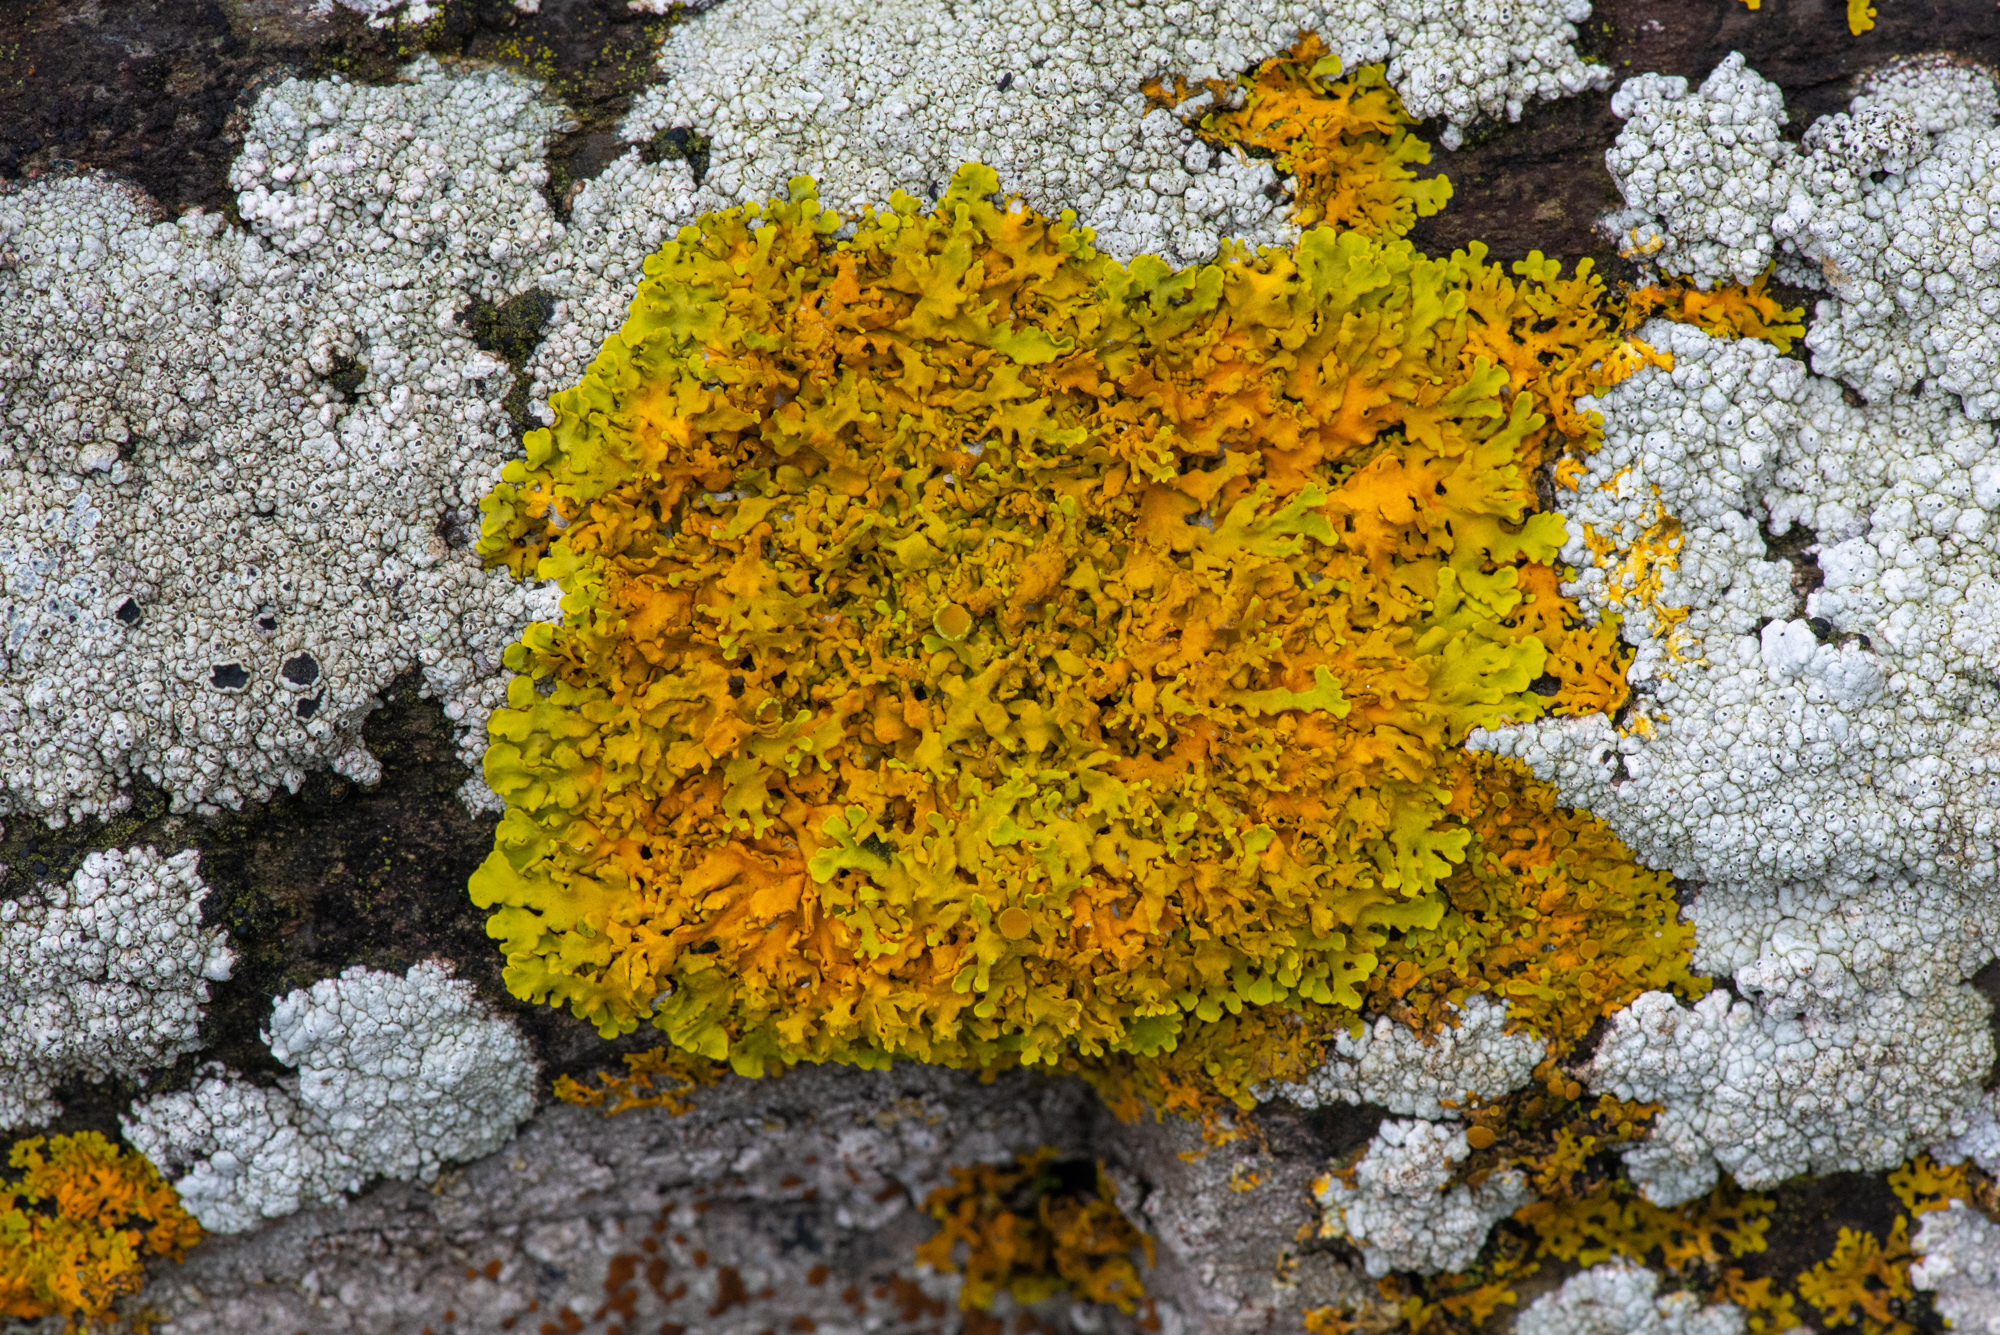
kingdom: Fungi
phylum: Ascomycota
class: Lecanoromycetes
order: Teloschistales
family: Teloschistaceae
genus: Xanthoria
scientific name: Xanthoria parietina
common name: Common orange lichen
